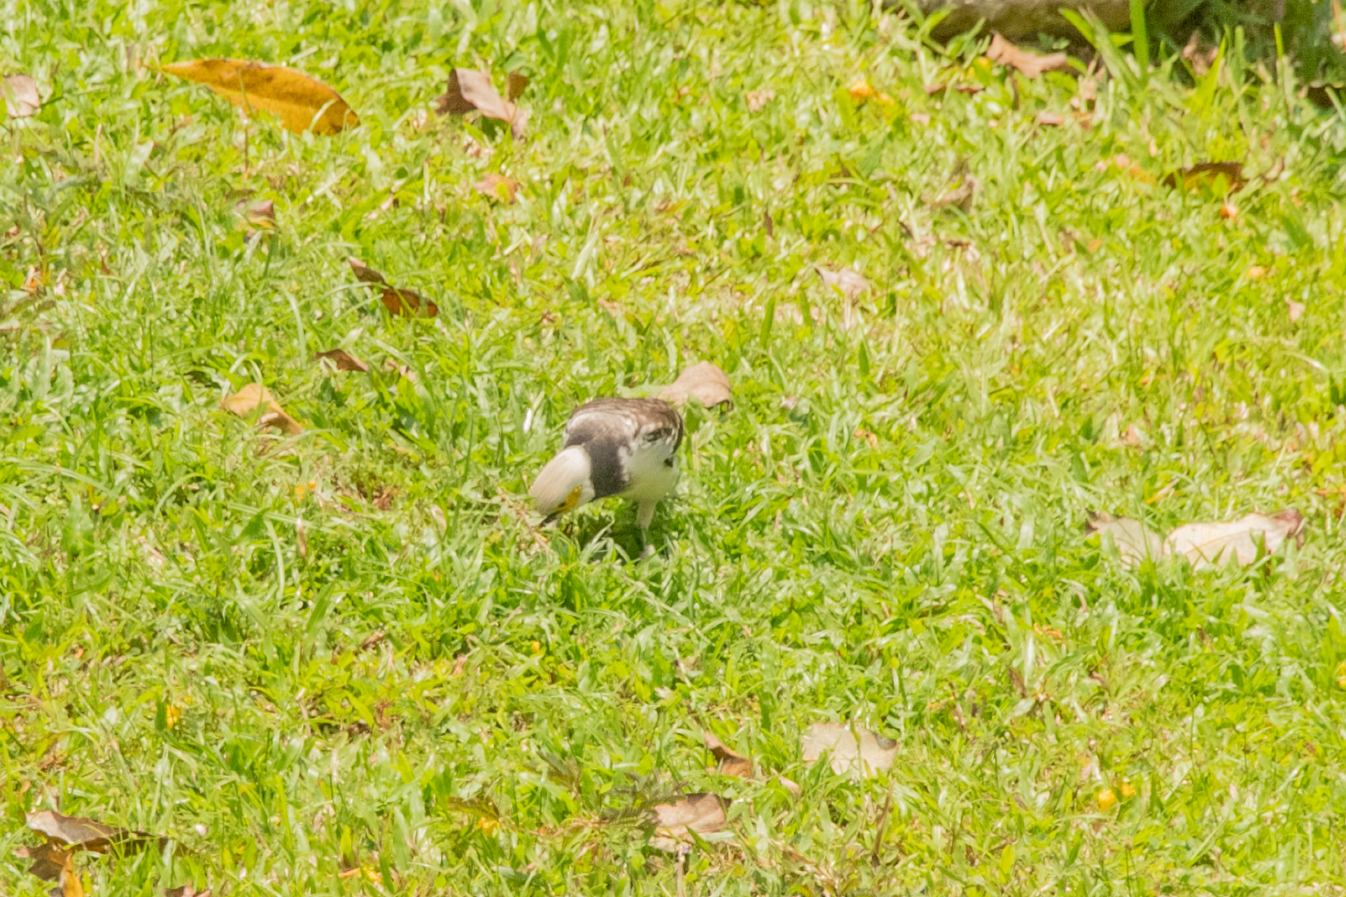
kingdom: Animalia
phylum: Chordata
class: Aves
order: Passeriformes
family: Sturnidae
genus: Gracupica
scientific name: Gracupica nigricollis
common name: Black-collared starling
